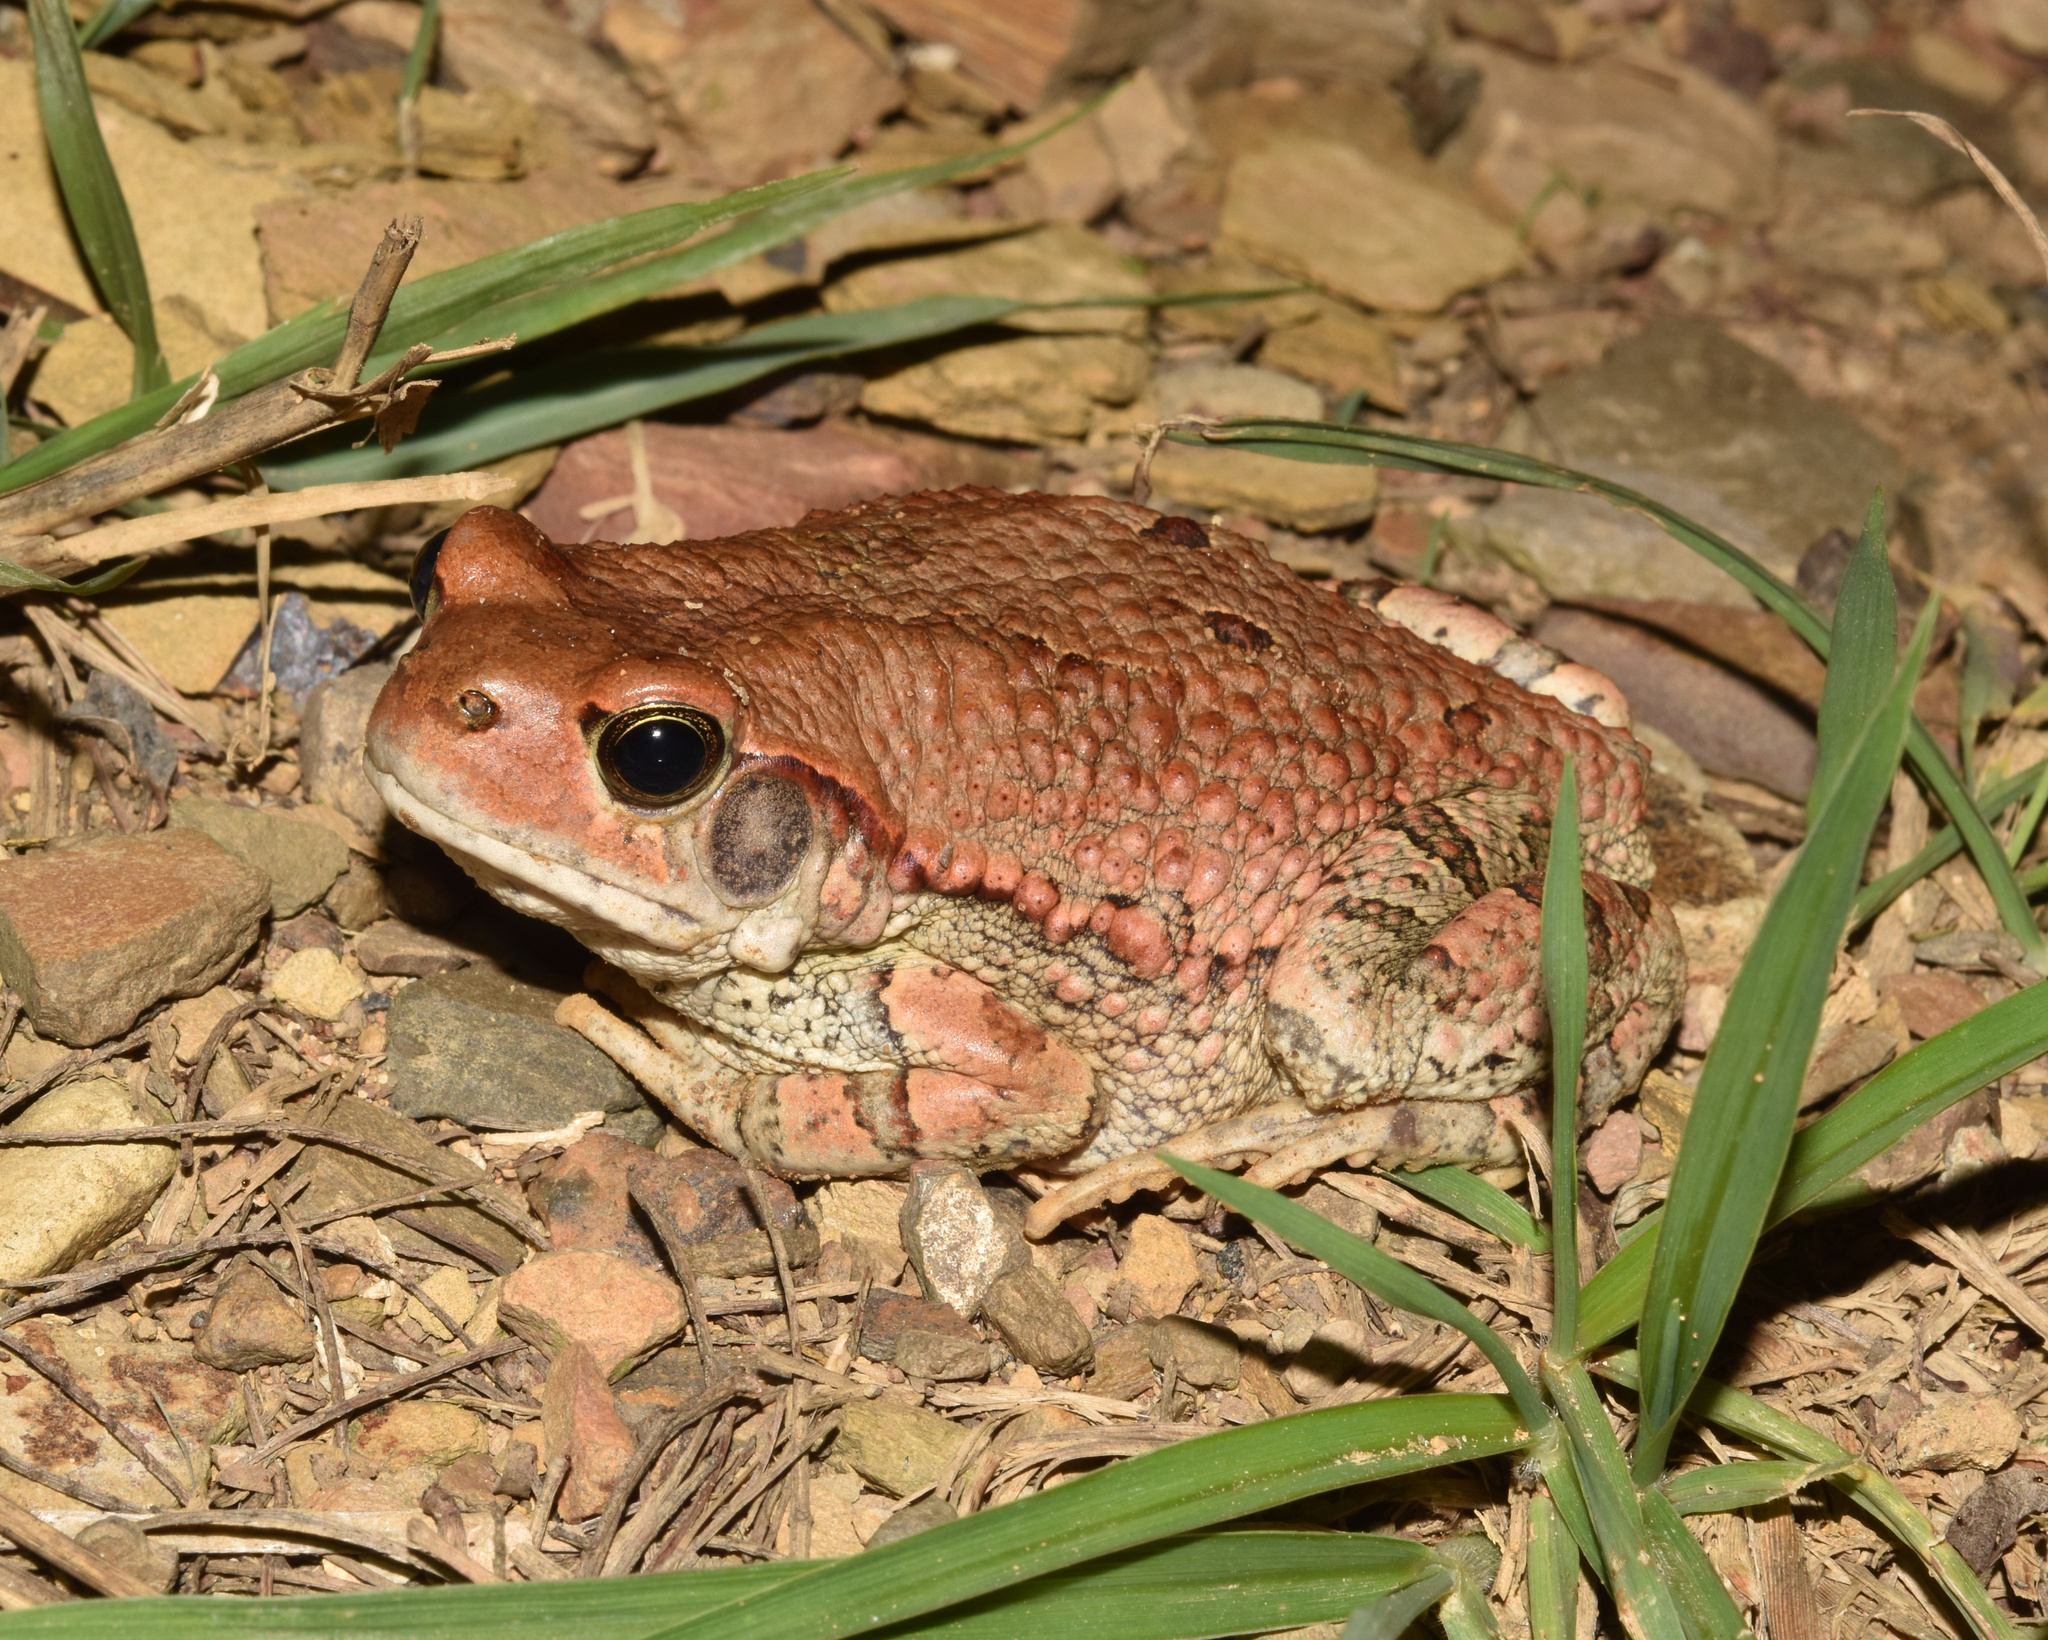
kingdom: Animalia
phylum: Chordata
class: Amphibia
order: Anura
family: Bufonidae
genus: Schismaderma
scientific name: Schismaderma carens
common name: African split-skin toad
